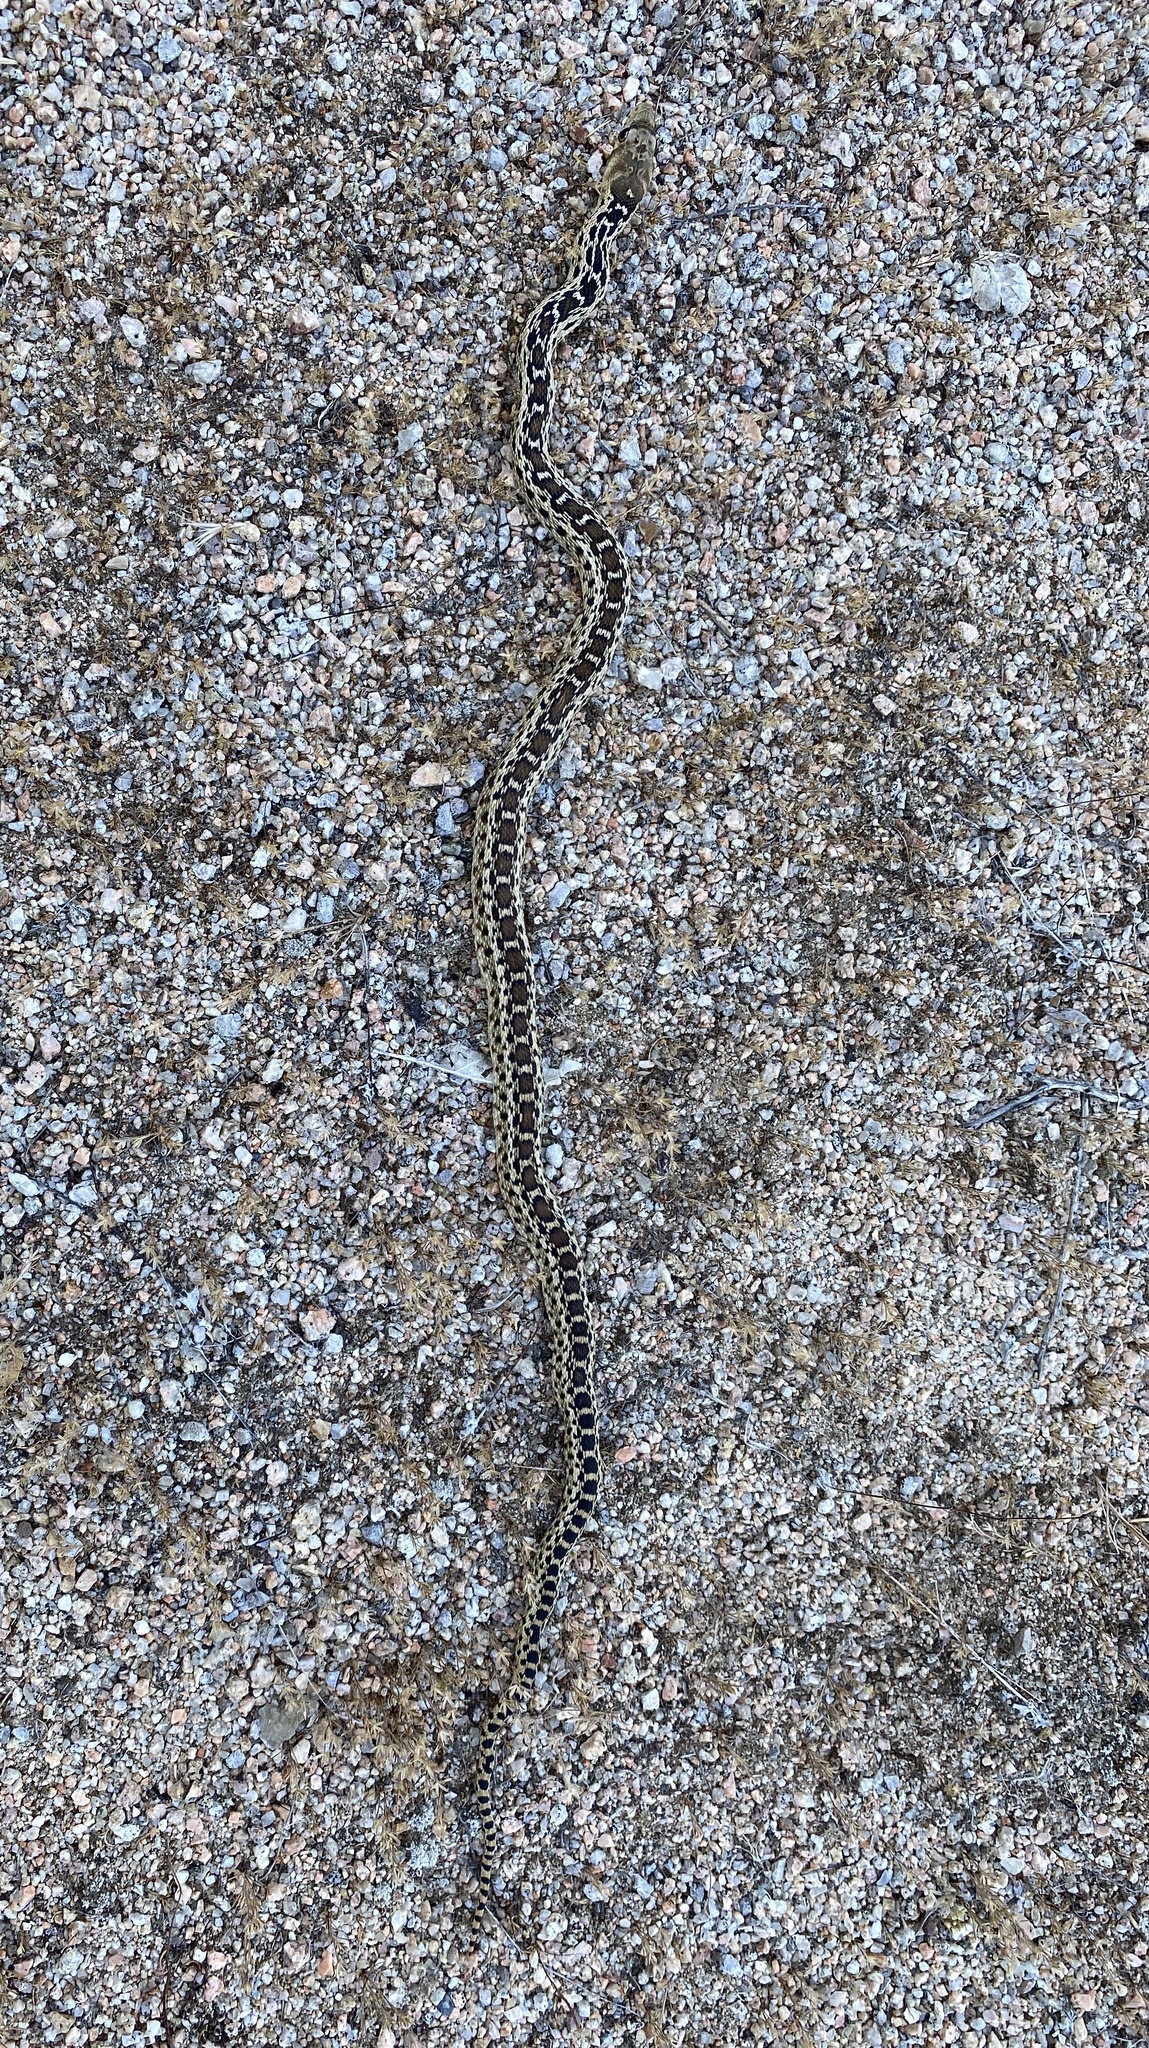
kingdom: Animalia
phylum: Chordata
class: Squamata
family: Colubridae
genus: Pituophis
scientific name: Pituophis catenifer
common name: Gopher snake
